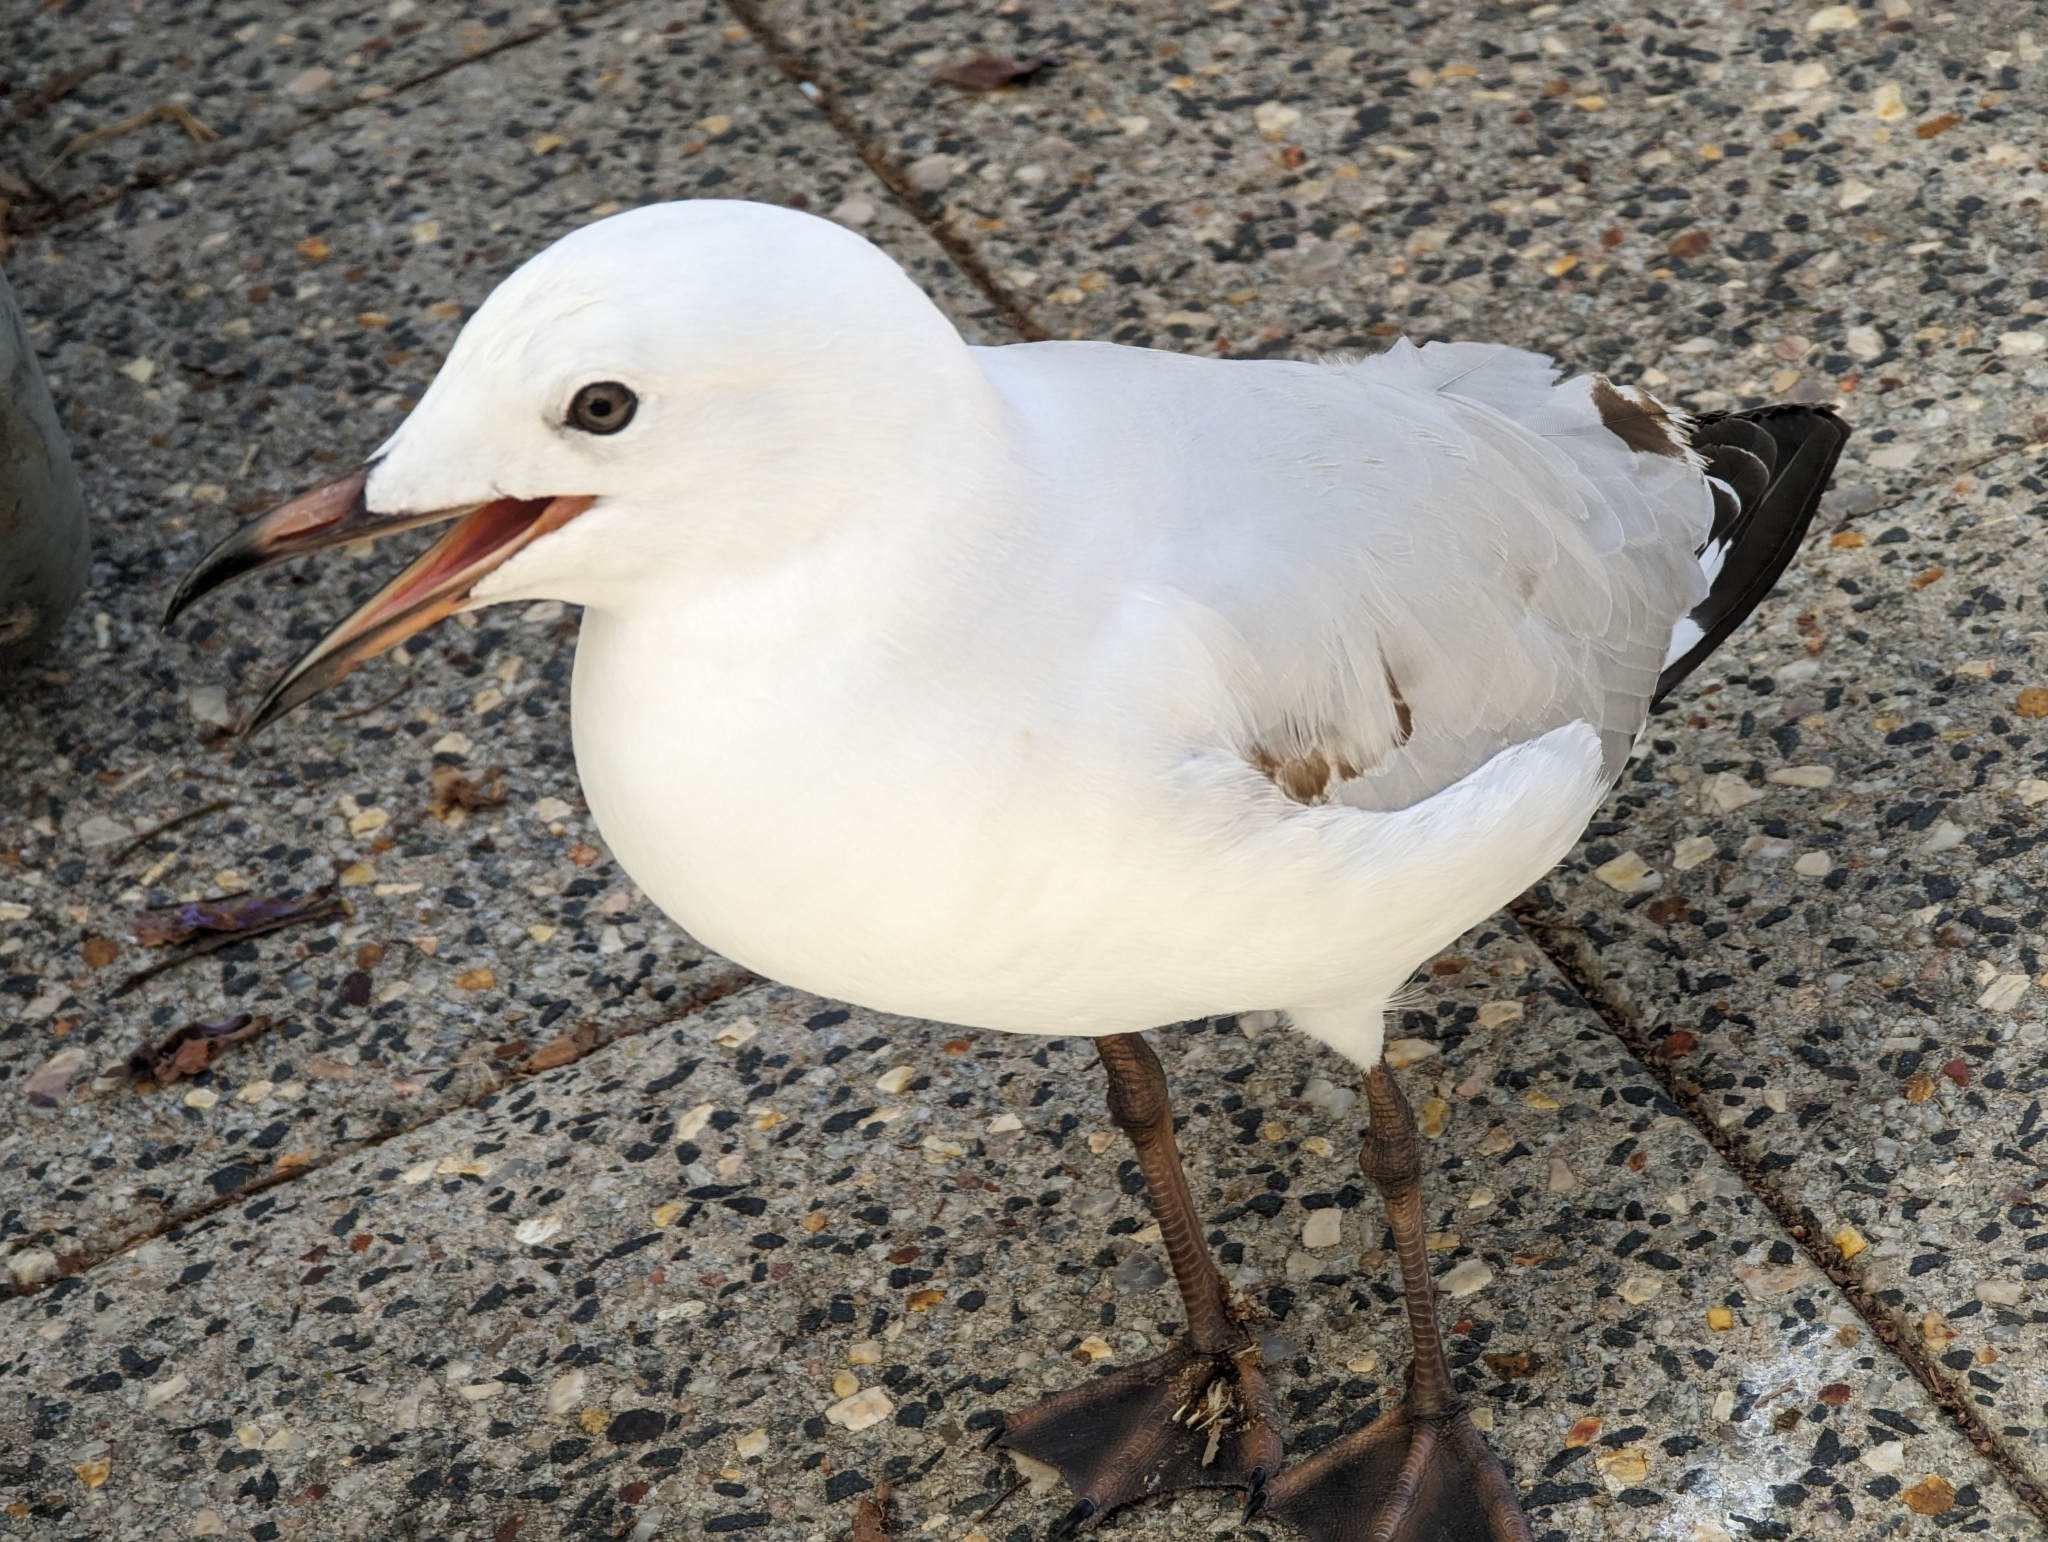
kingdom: Animalia
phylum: Chordata
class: Aves
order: Charadriiformes
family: Laridae
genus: Chroicocephalus
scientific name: Chroicocephalus novaehollandiae
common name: Silver gull
